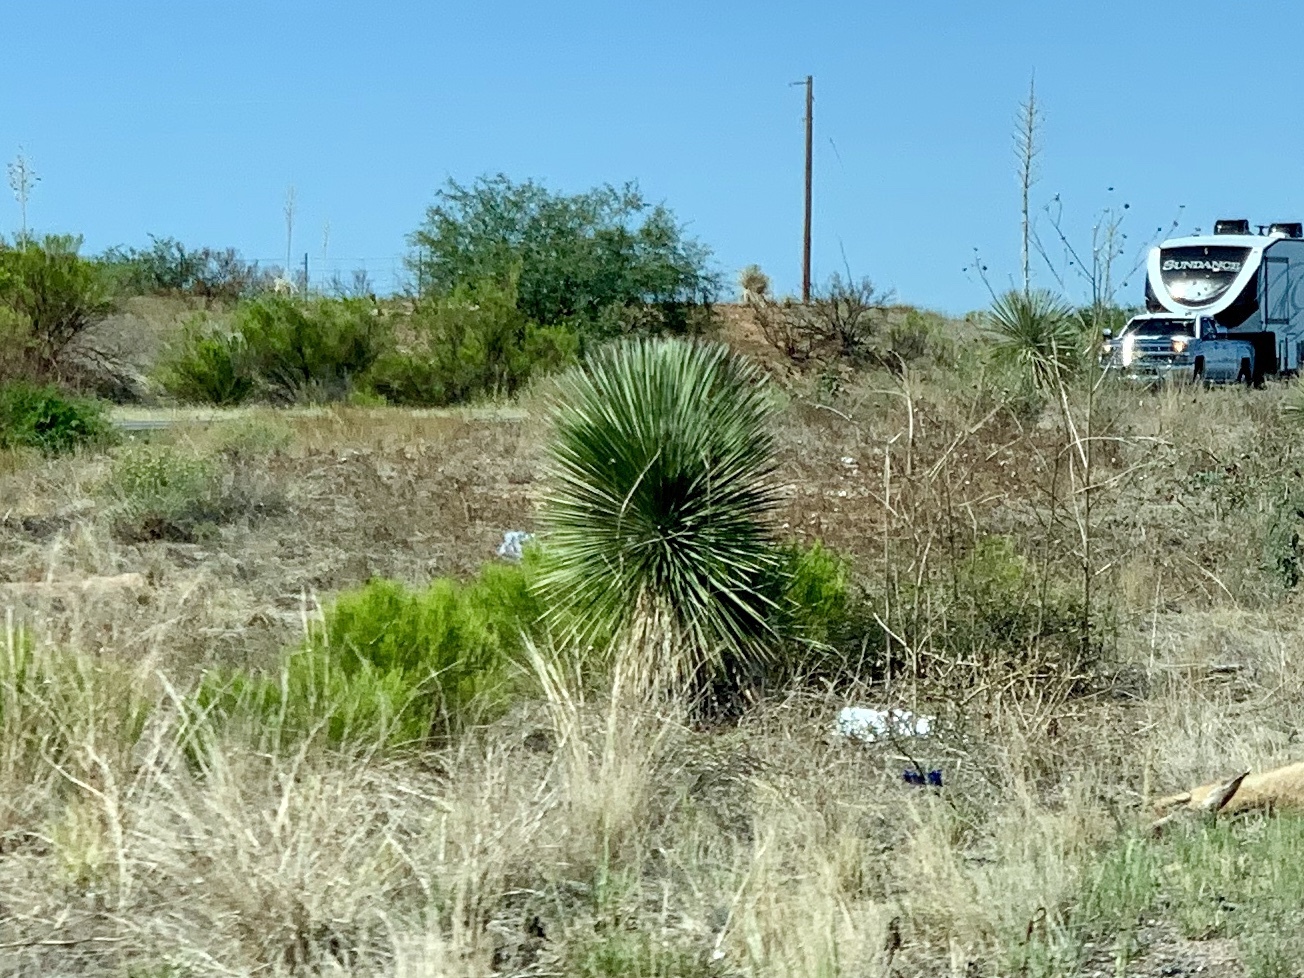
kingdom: Plantae
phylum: Tracheophyta
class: Liliopsida
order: Asparagales
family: Asparagaceae
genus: Yucca
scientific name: Yucca elata
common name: Palmella
